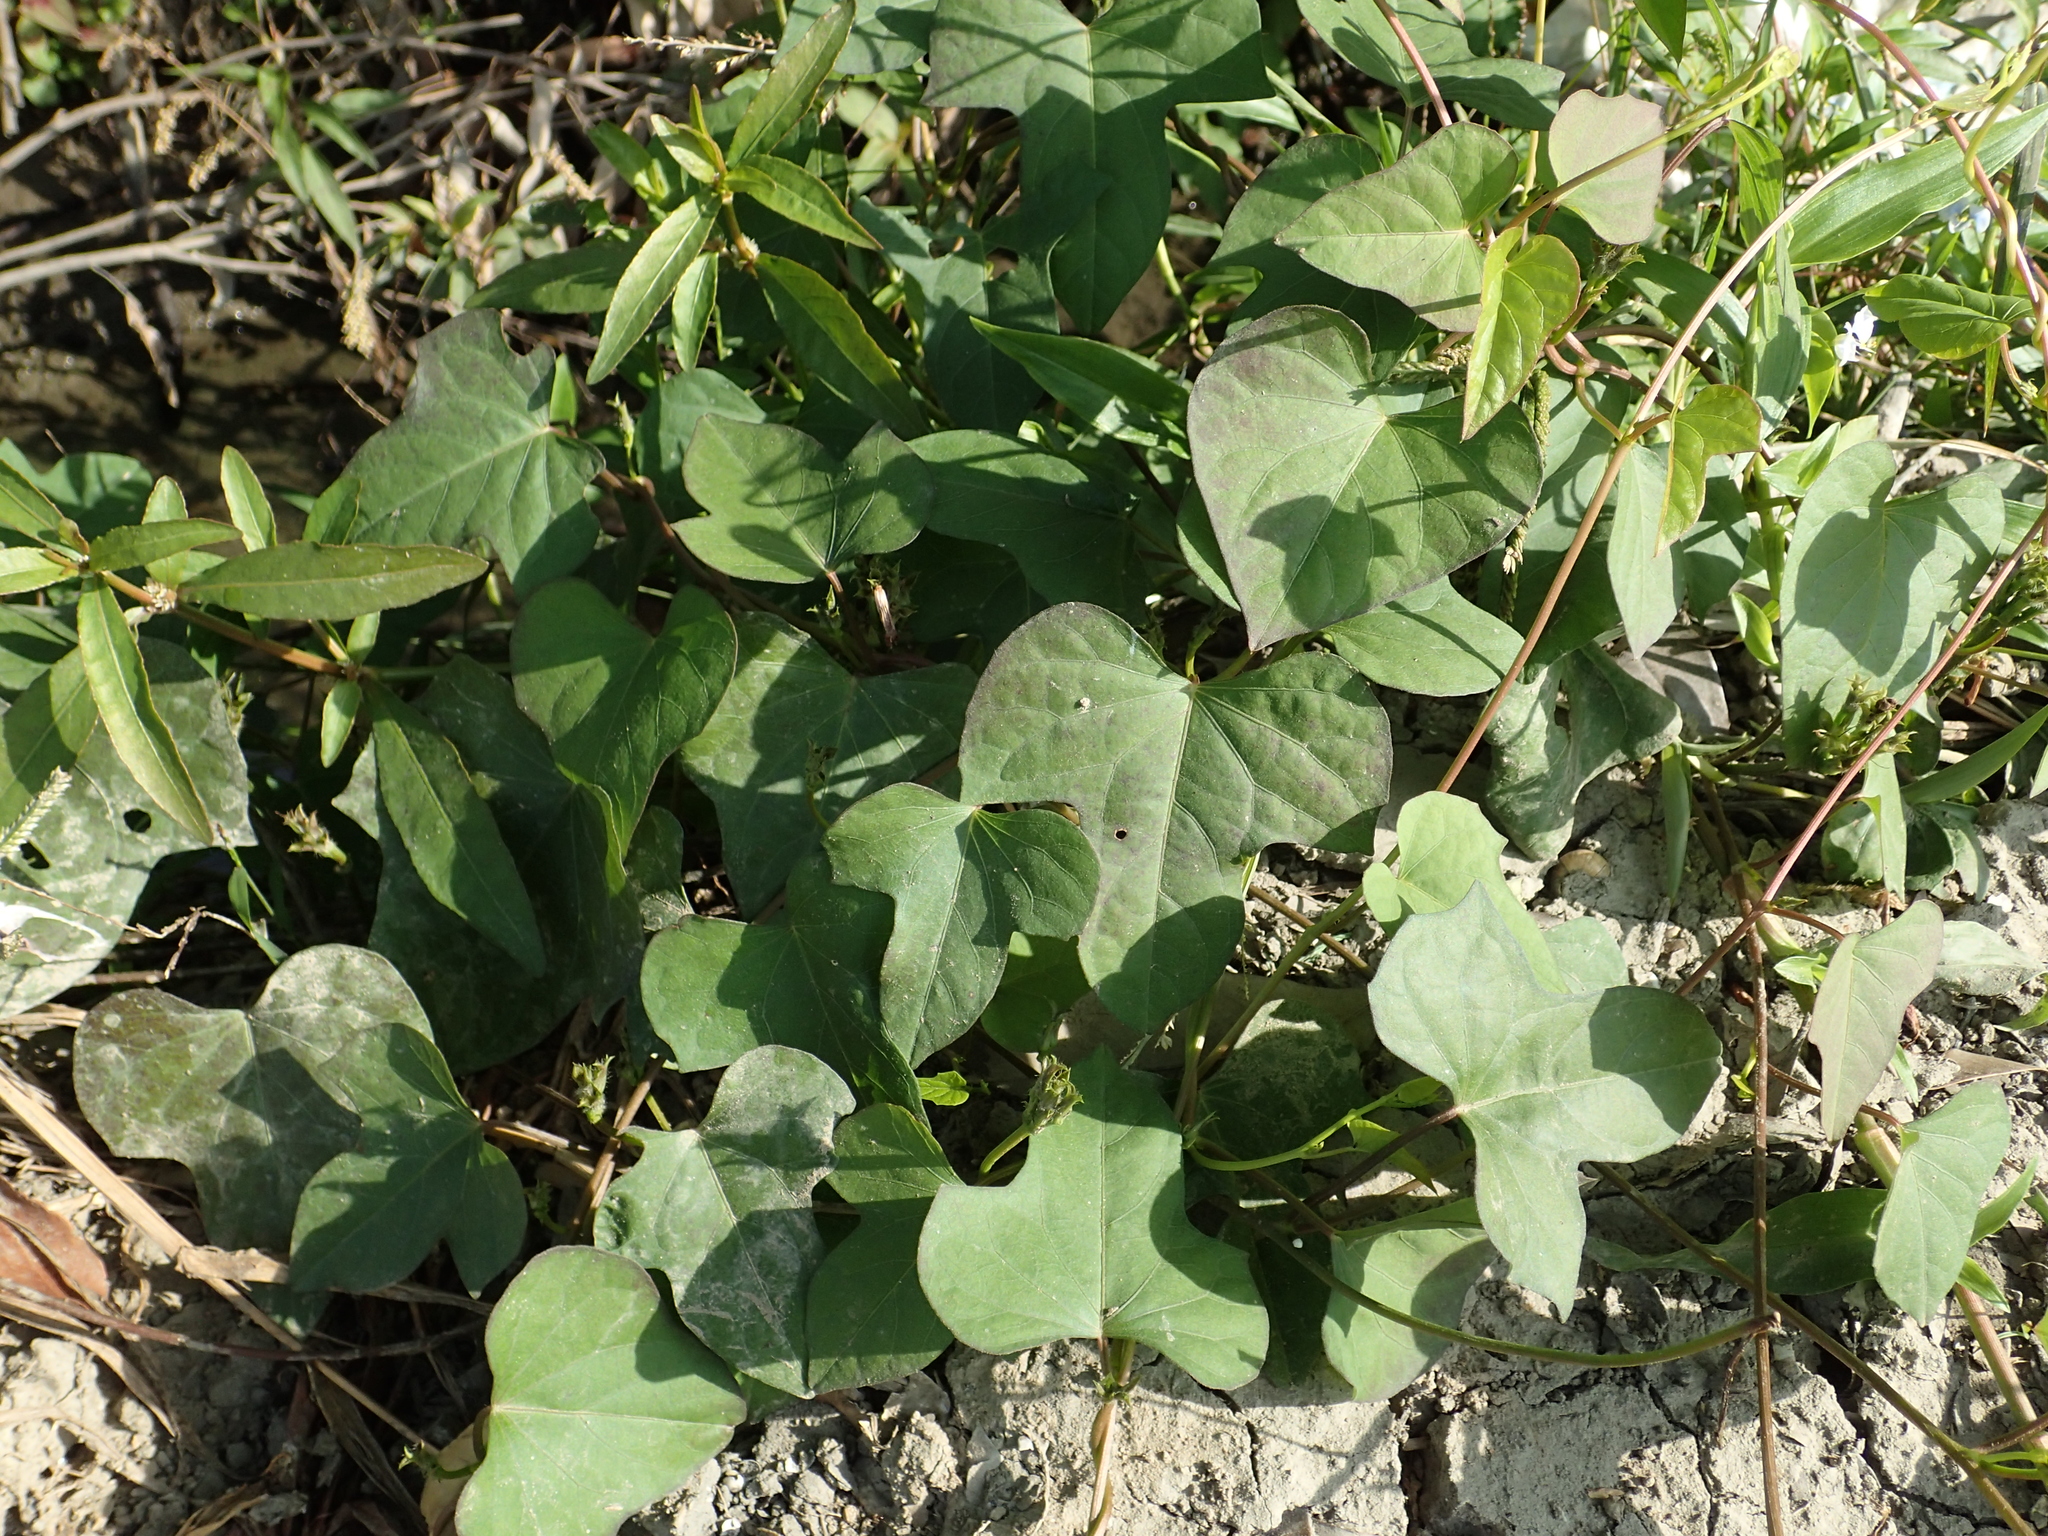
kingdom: Plantae
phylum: Tracheophyta
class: Magnoliopsida
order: Solanales
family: Convolvulaceae
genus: Ipomoea
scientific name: Ipomoea triloba
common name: Little-bell
